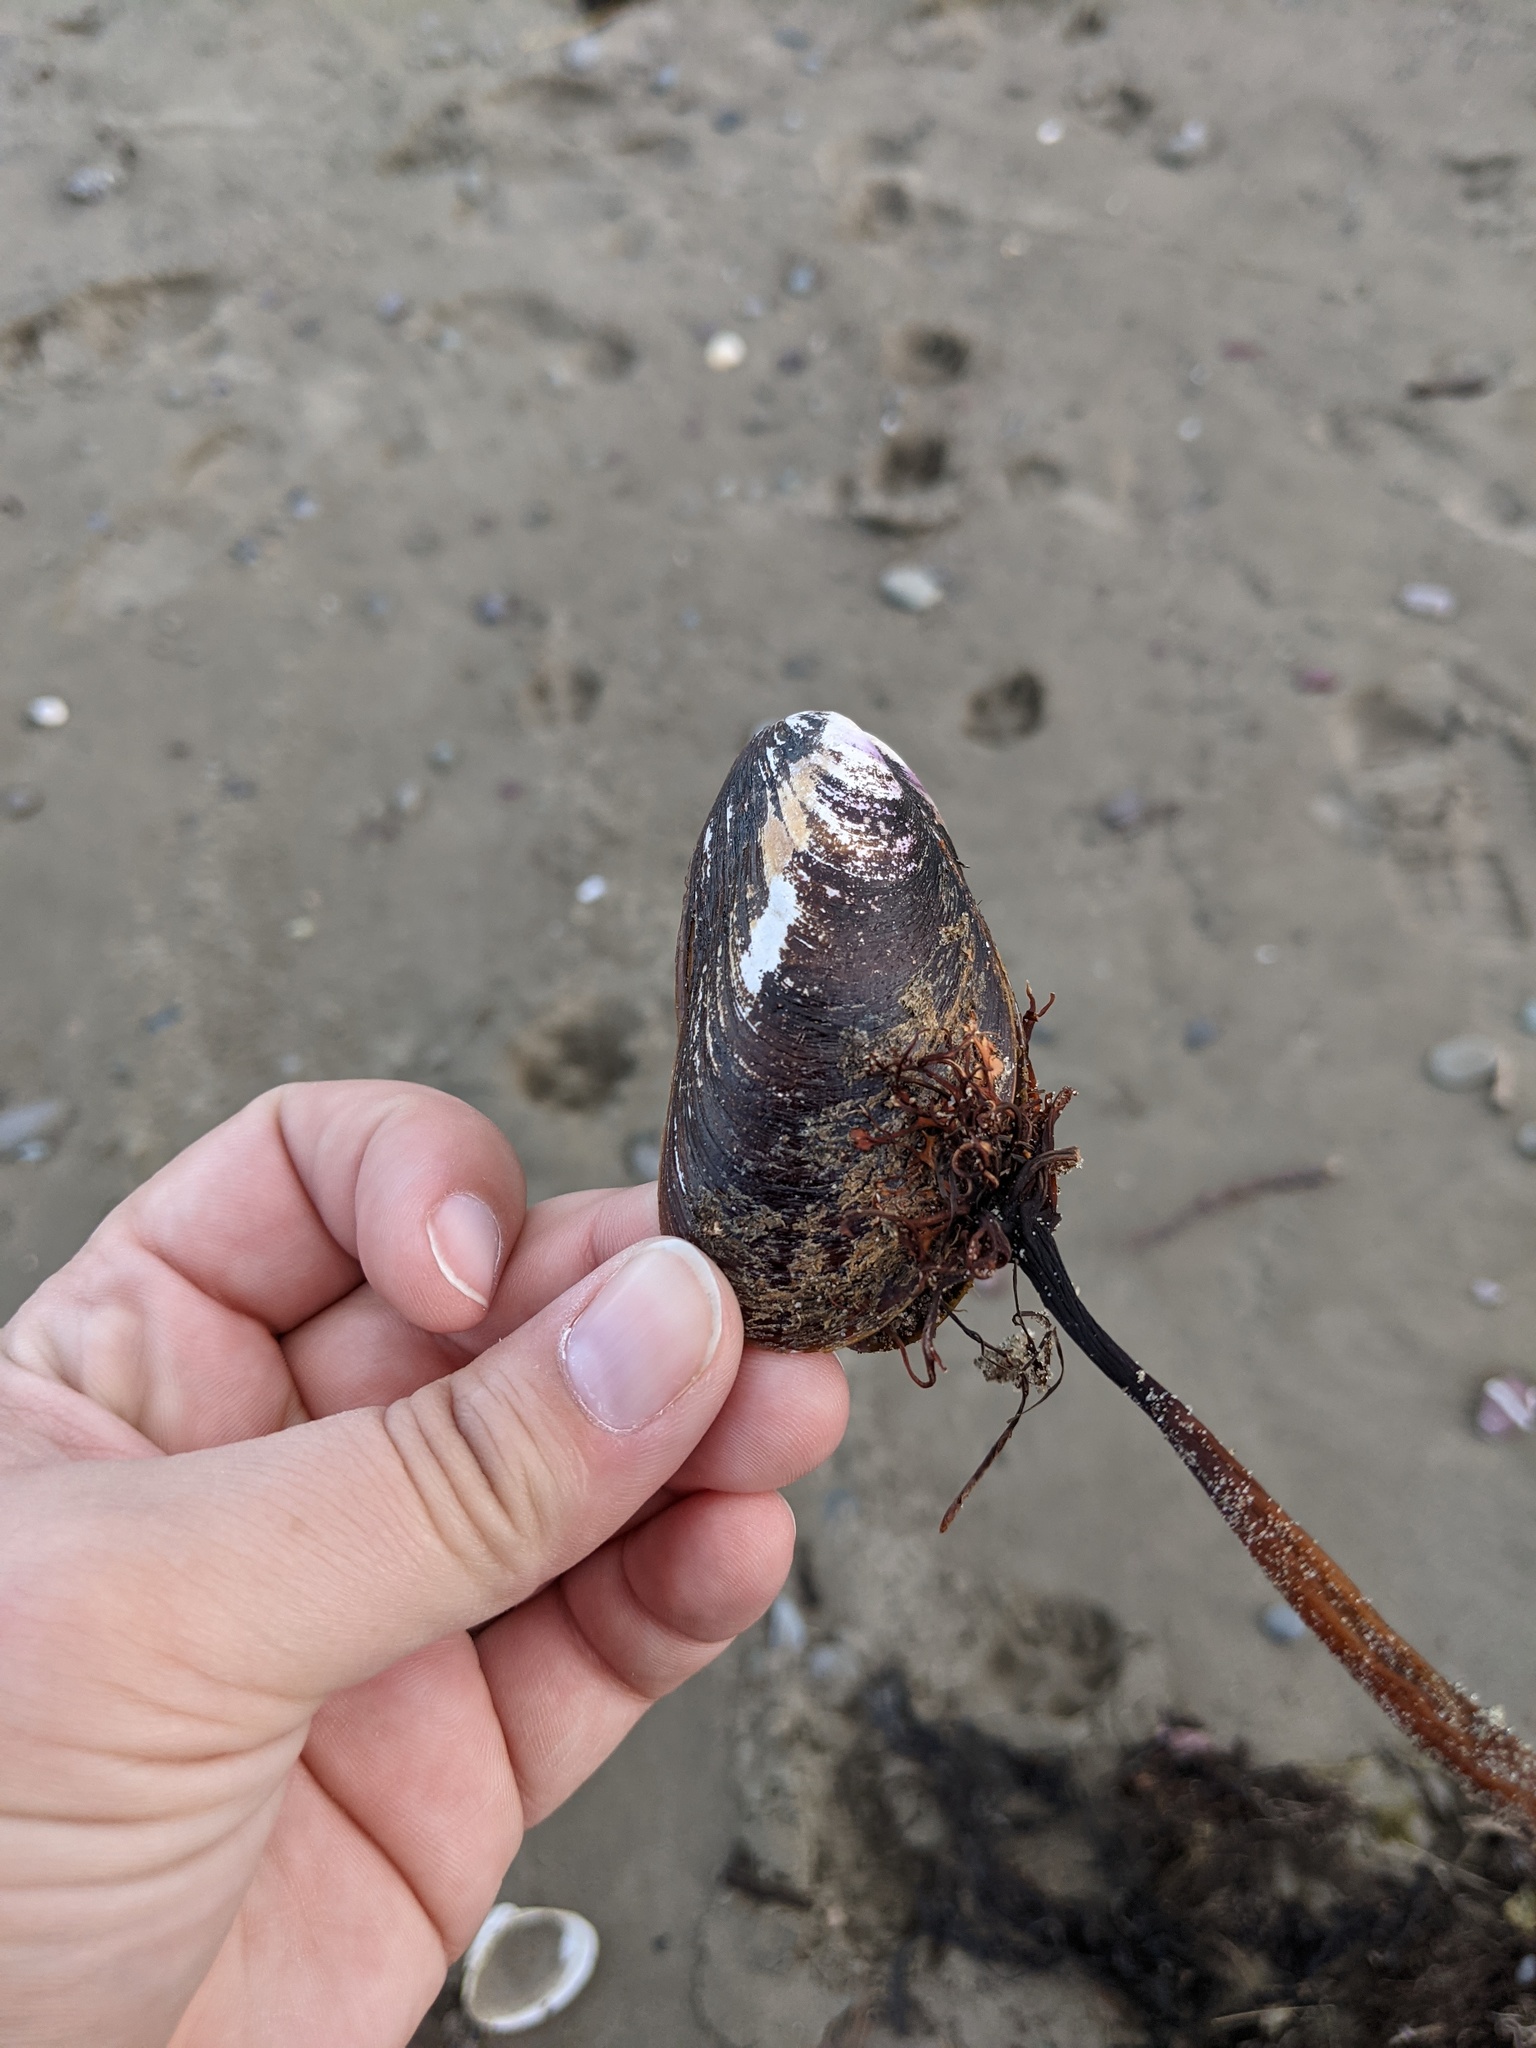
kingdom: Animalia
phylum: Mollusca
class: Bivalvia
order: Mytilida
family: Mytilidae
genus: Mytilus
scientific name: Mytilus edulis
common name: Blue mussel
